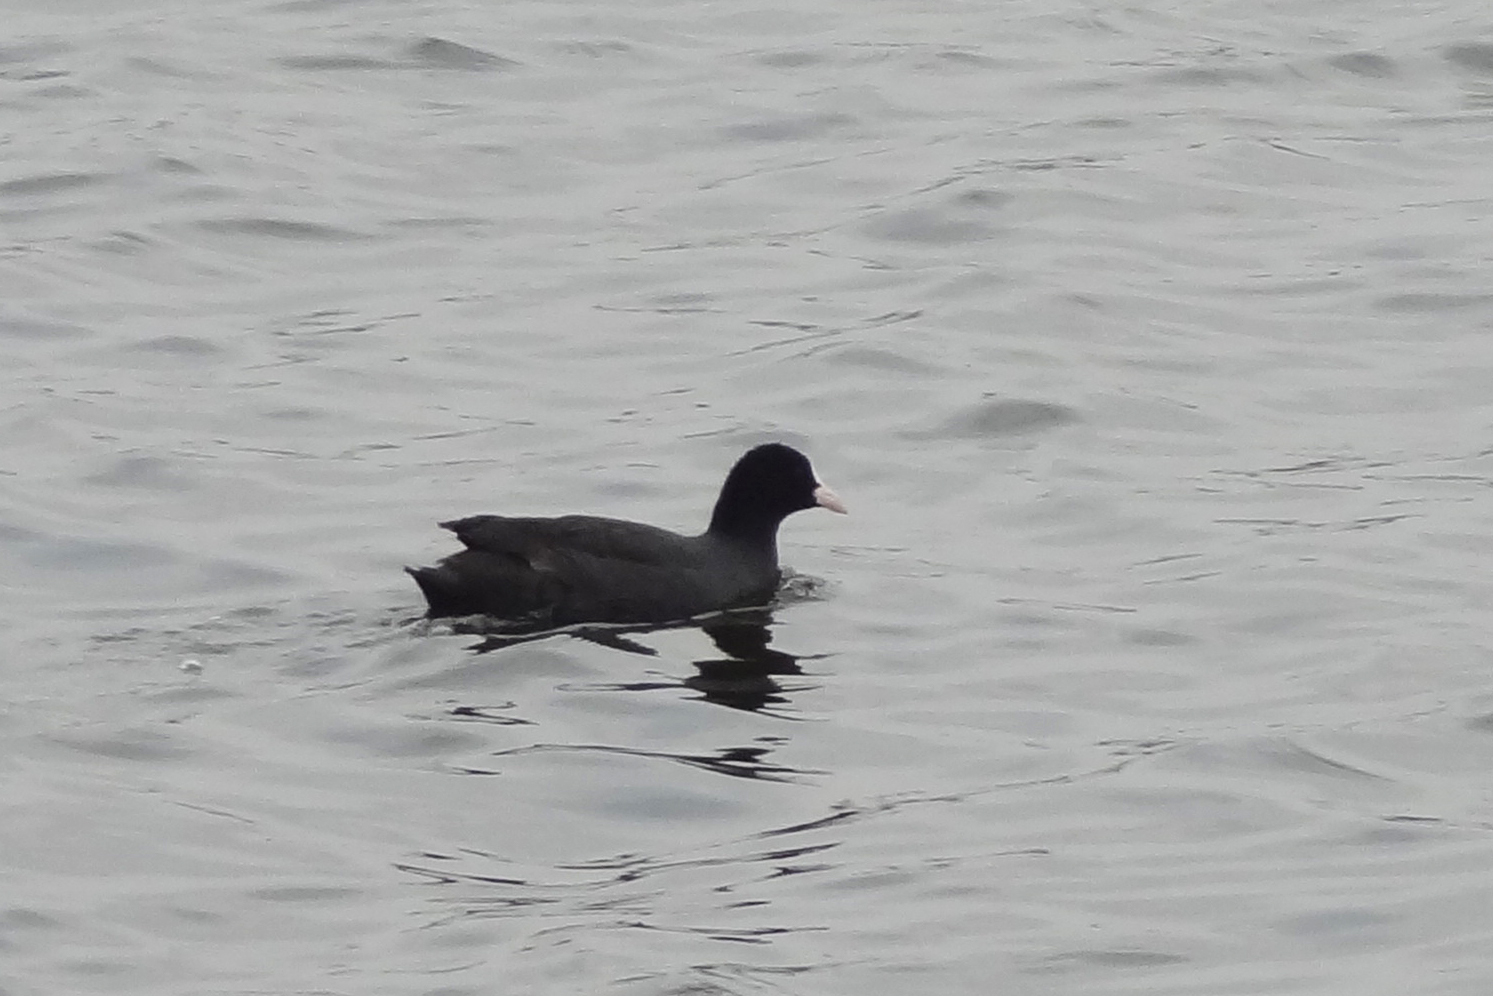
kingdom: Animalia
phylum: Chordata
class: Aves
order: Gruiformes
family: Rallidae
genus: Fulica
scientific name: Fulica atra
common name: Eurasian coot
